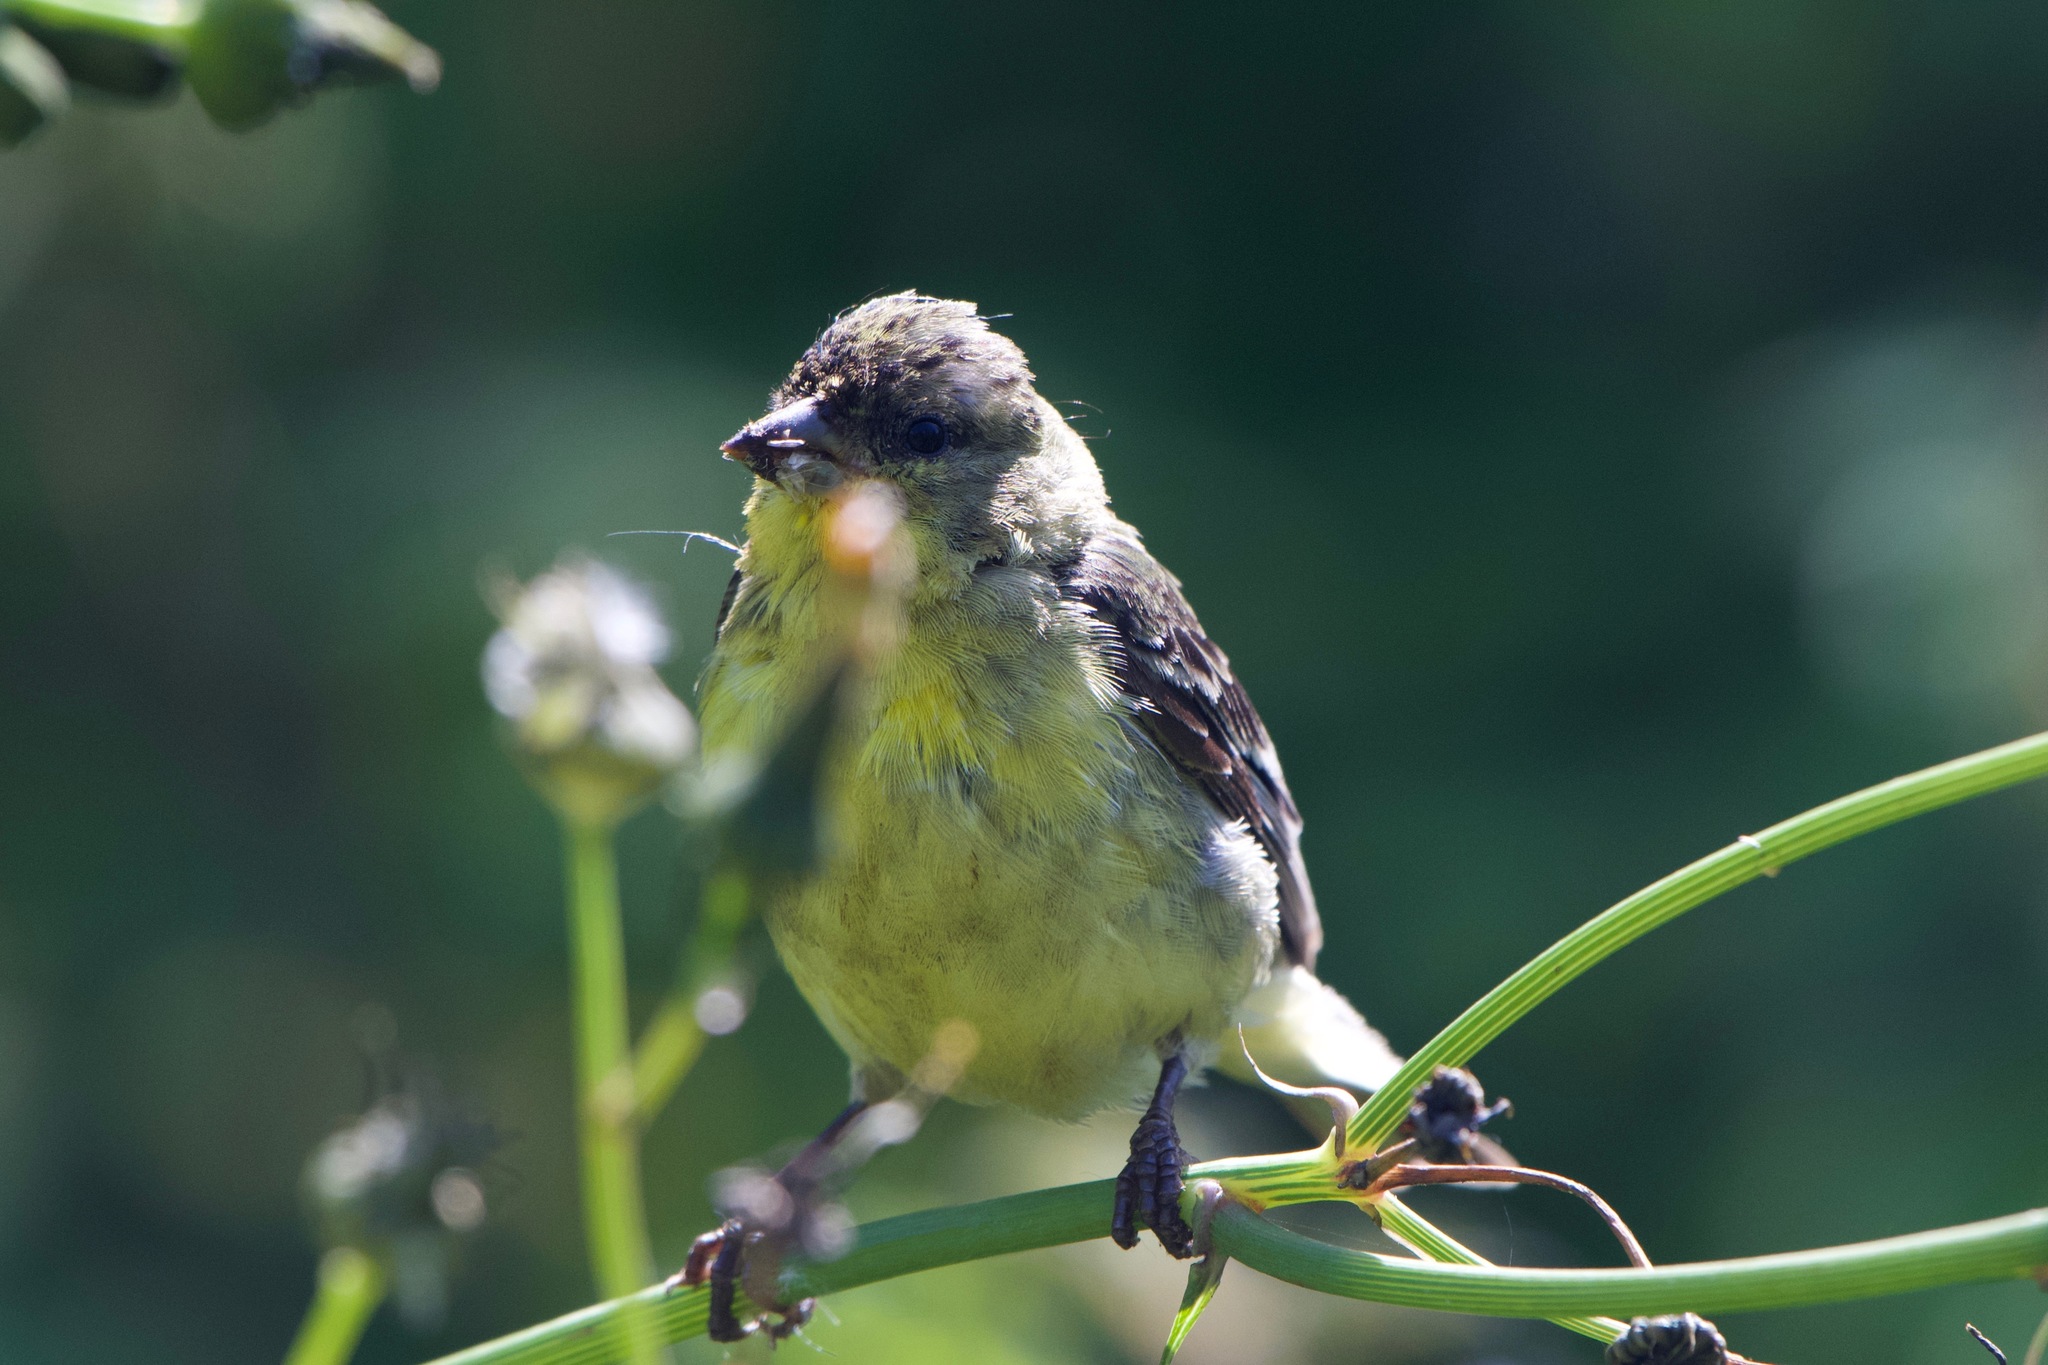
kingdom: Animalia
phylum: Chordata
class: Aves
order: Passeriformes
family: Fringillidae
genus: Spinus
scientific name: Spinus psaltria
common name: Lesser goldfinch
